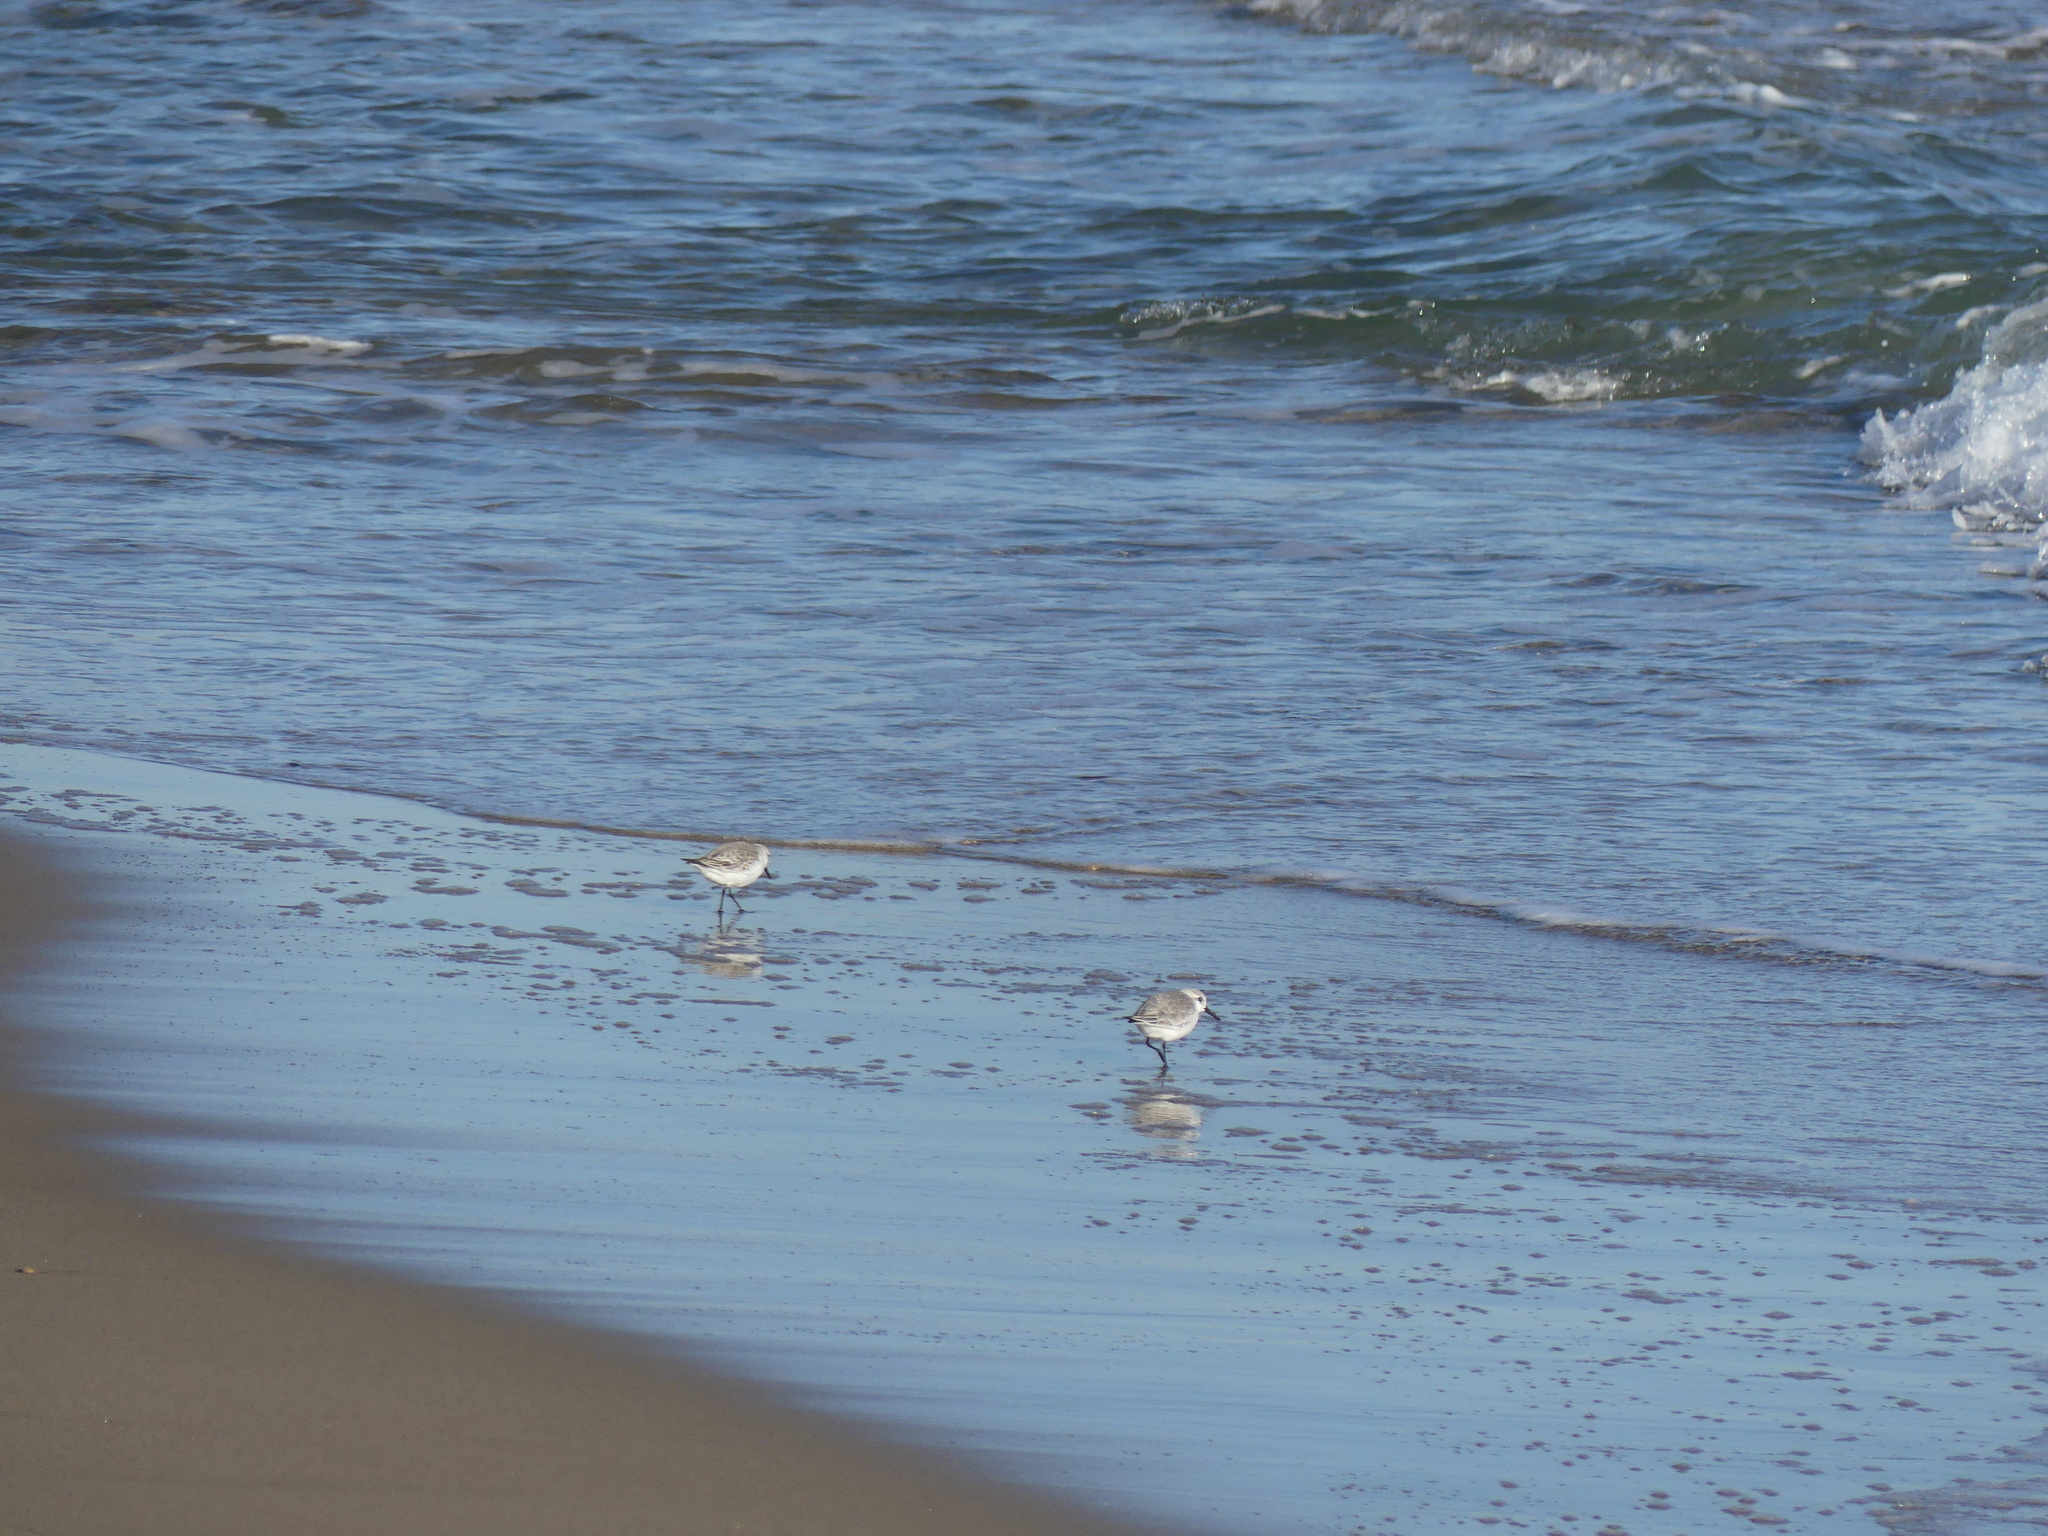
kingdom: Animalia
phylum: Chordata
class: Aves
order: Charadriiformes
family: Scolopacidae
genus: Calidris
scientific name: Calidris alba
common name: Sanderling
